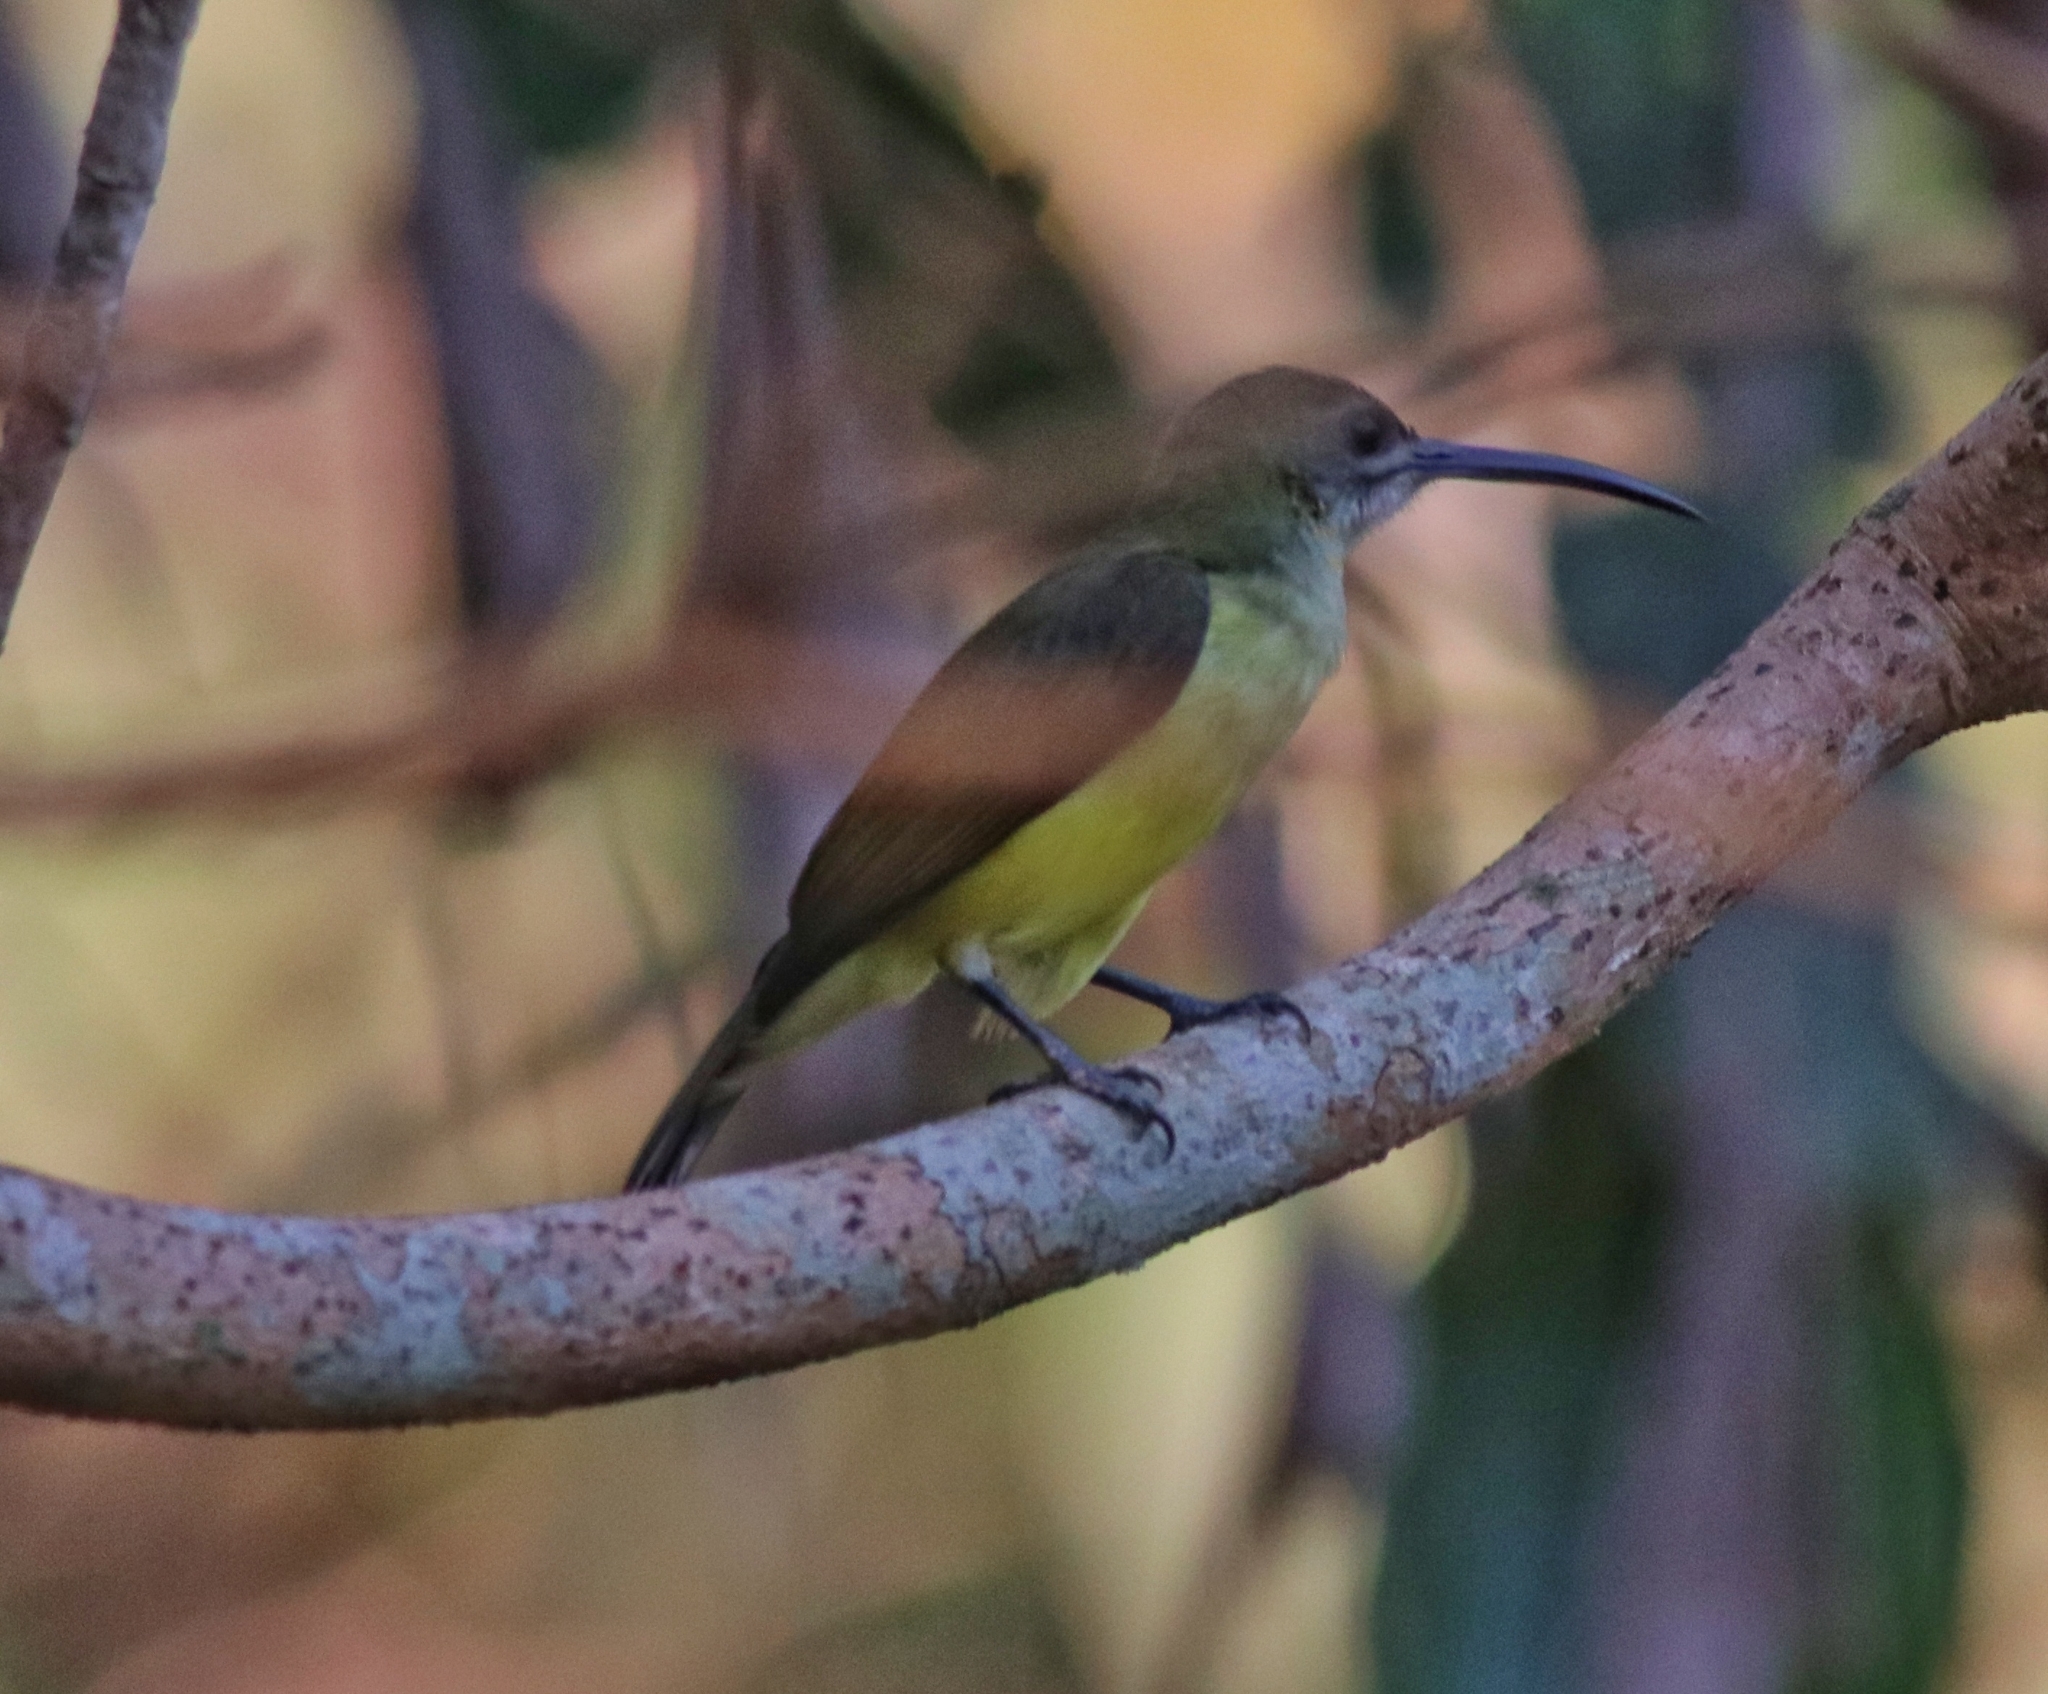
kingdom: Animalia
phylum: Chordata
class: Aves
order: Passeriformes
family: Nectariniidae
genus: Arachnothera
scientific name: Arachnothera longirostra
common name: Little spiderhunter
